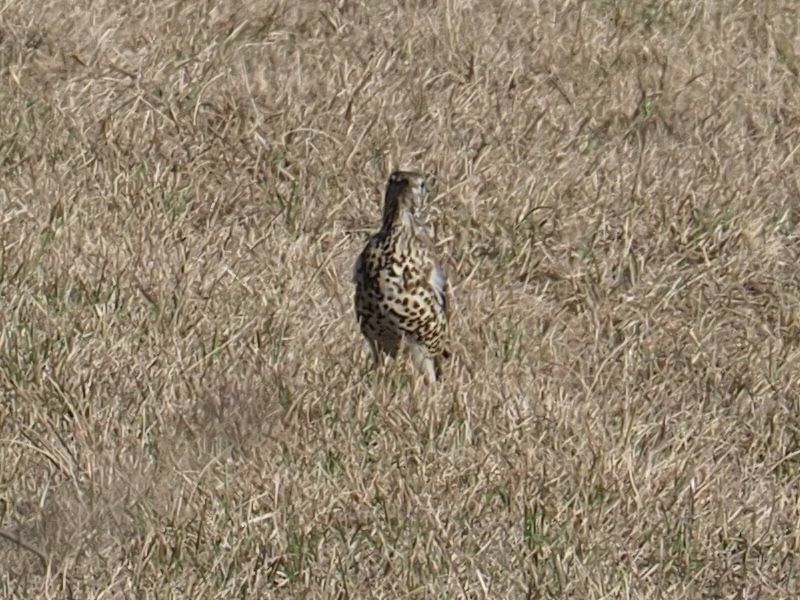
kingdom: Animalia
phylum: Chordata
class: Aves
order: Passeriformes
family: Turdidae
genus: Turdus
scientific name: Turdus viscivorus
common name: Mistle thrush
